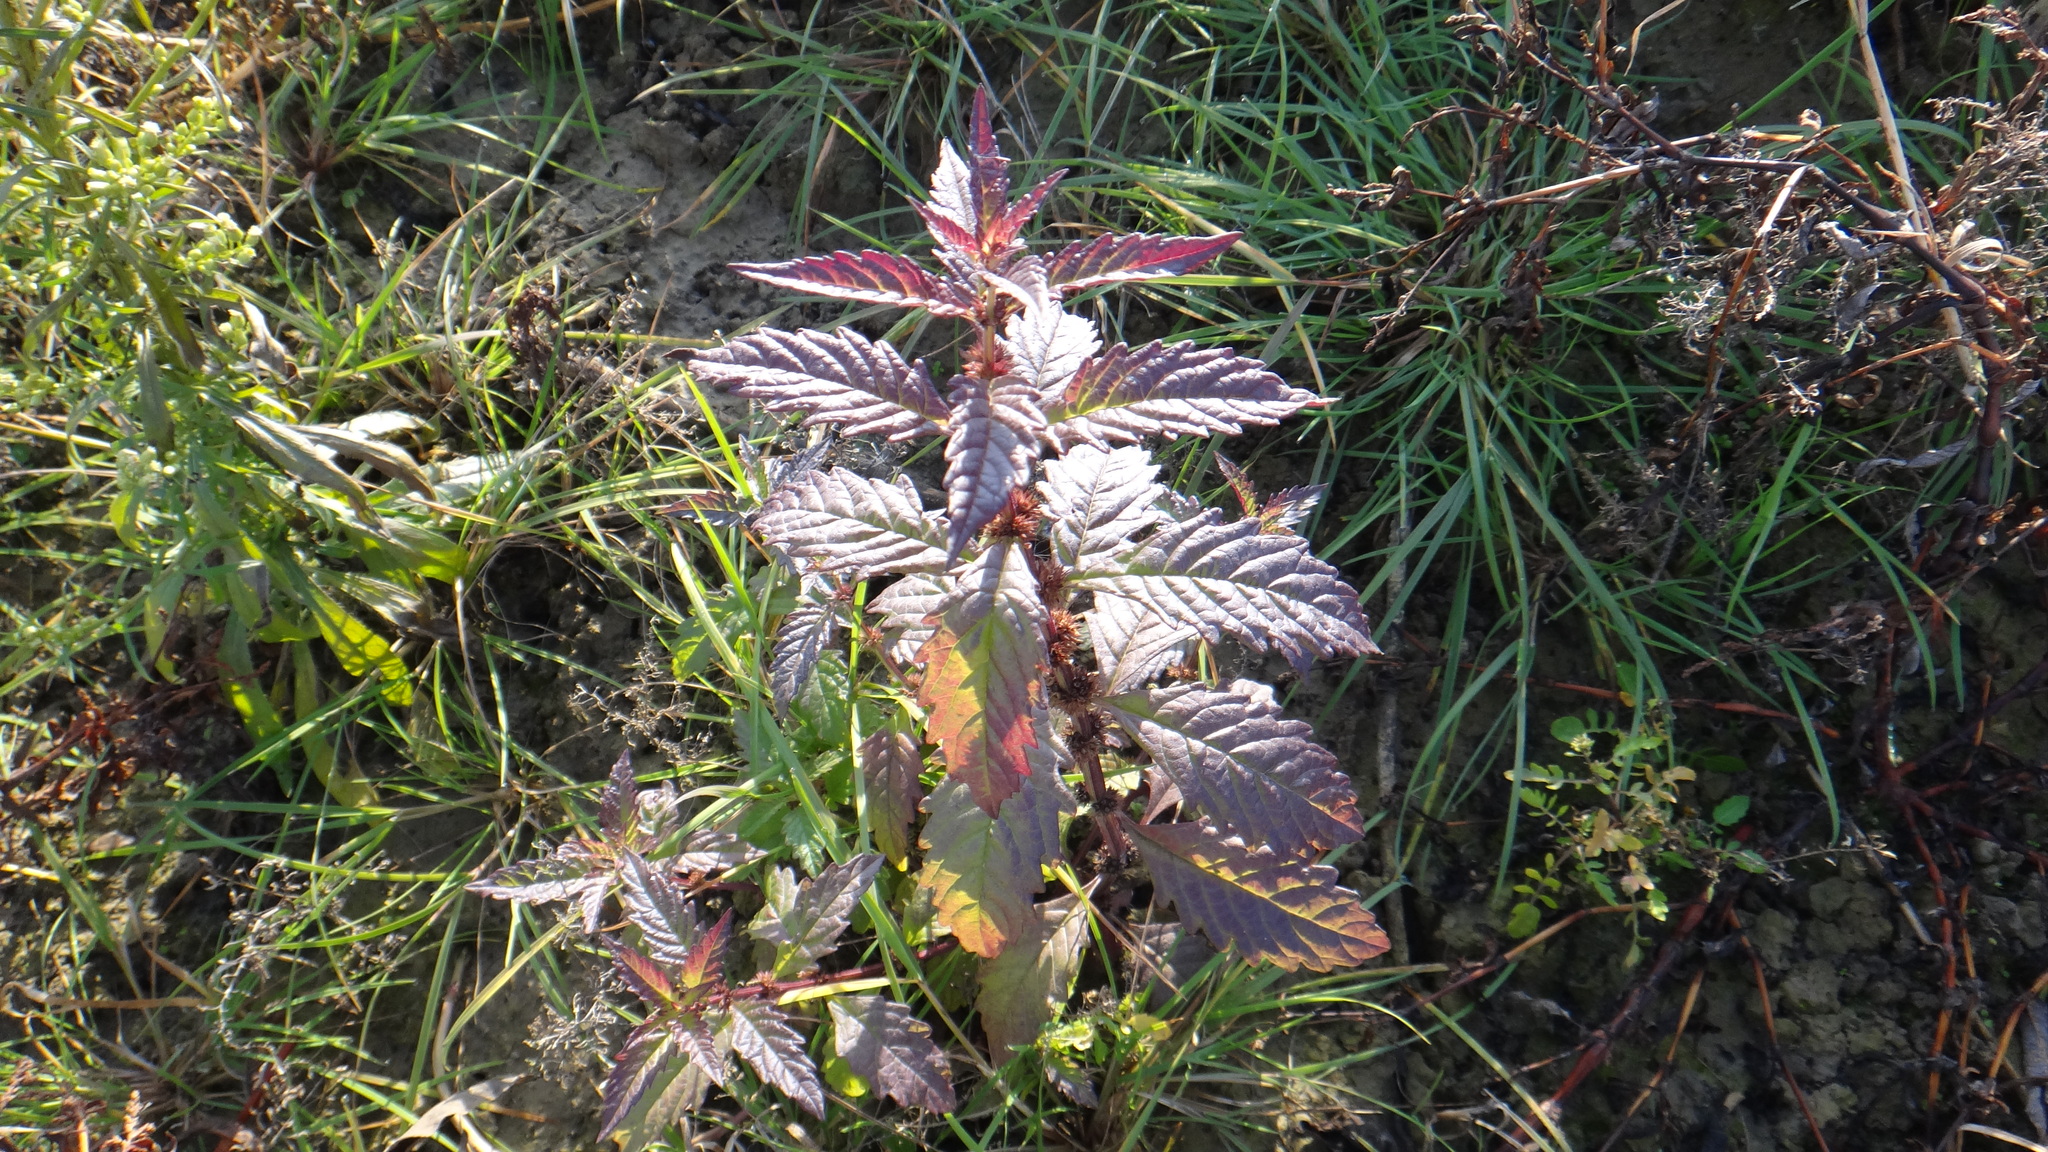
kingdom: Plantae
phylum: Tracheophyta
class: Magnoliopsida
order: Lamiales
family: Lamiaceae
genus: Lycopus
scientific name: Lycopus europaeus
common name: European bugleweed
